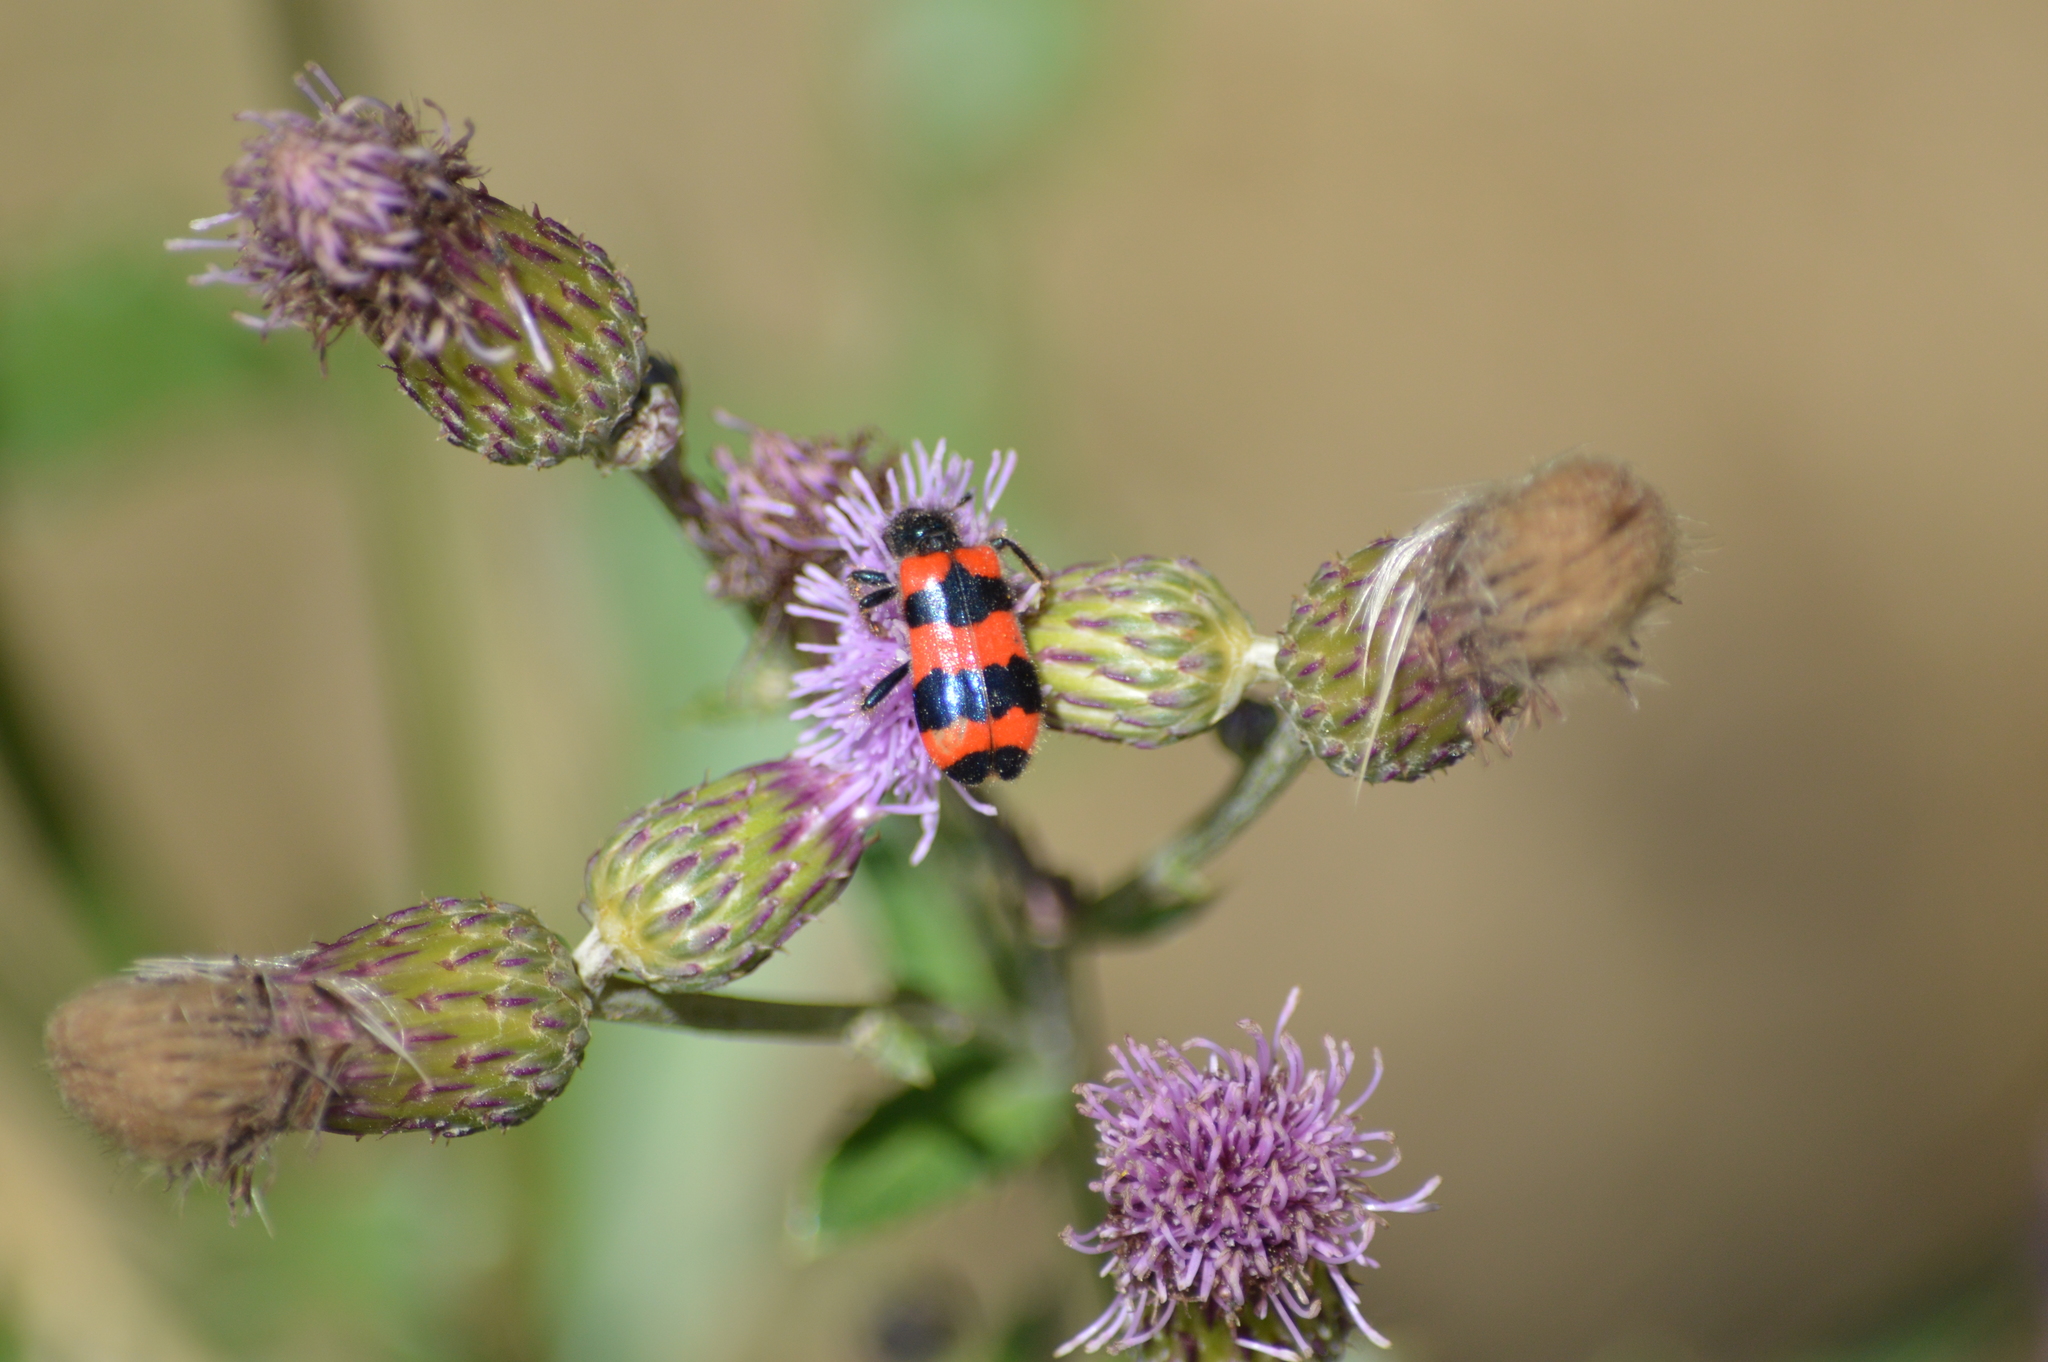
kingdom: Animalia
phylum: Arthropoda
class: Insecta
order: Coleoptera
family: Cleridae
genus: Trichodes
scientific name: Trichodes apiarius
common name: Bee-eating beetle
